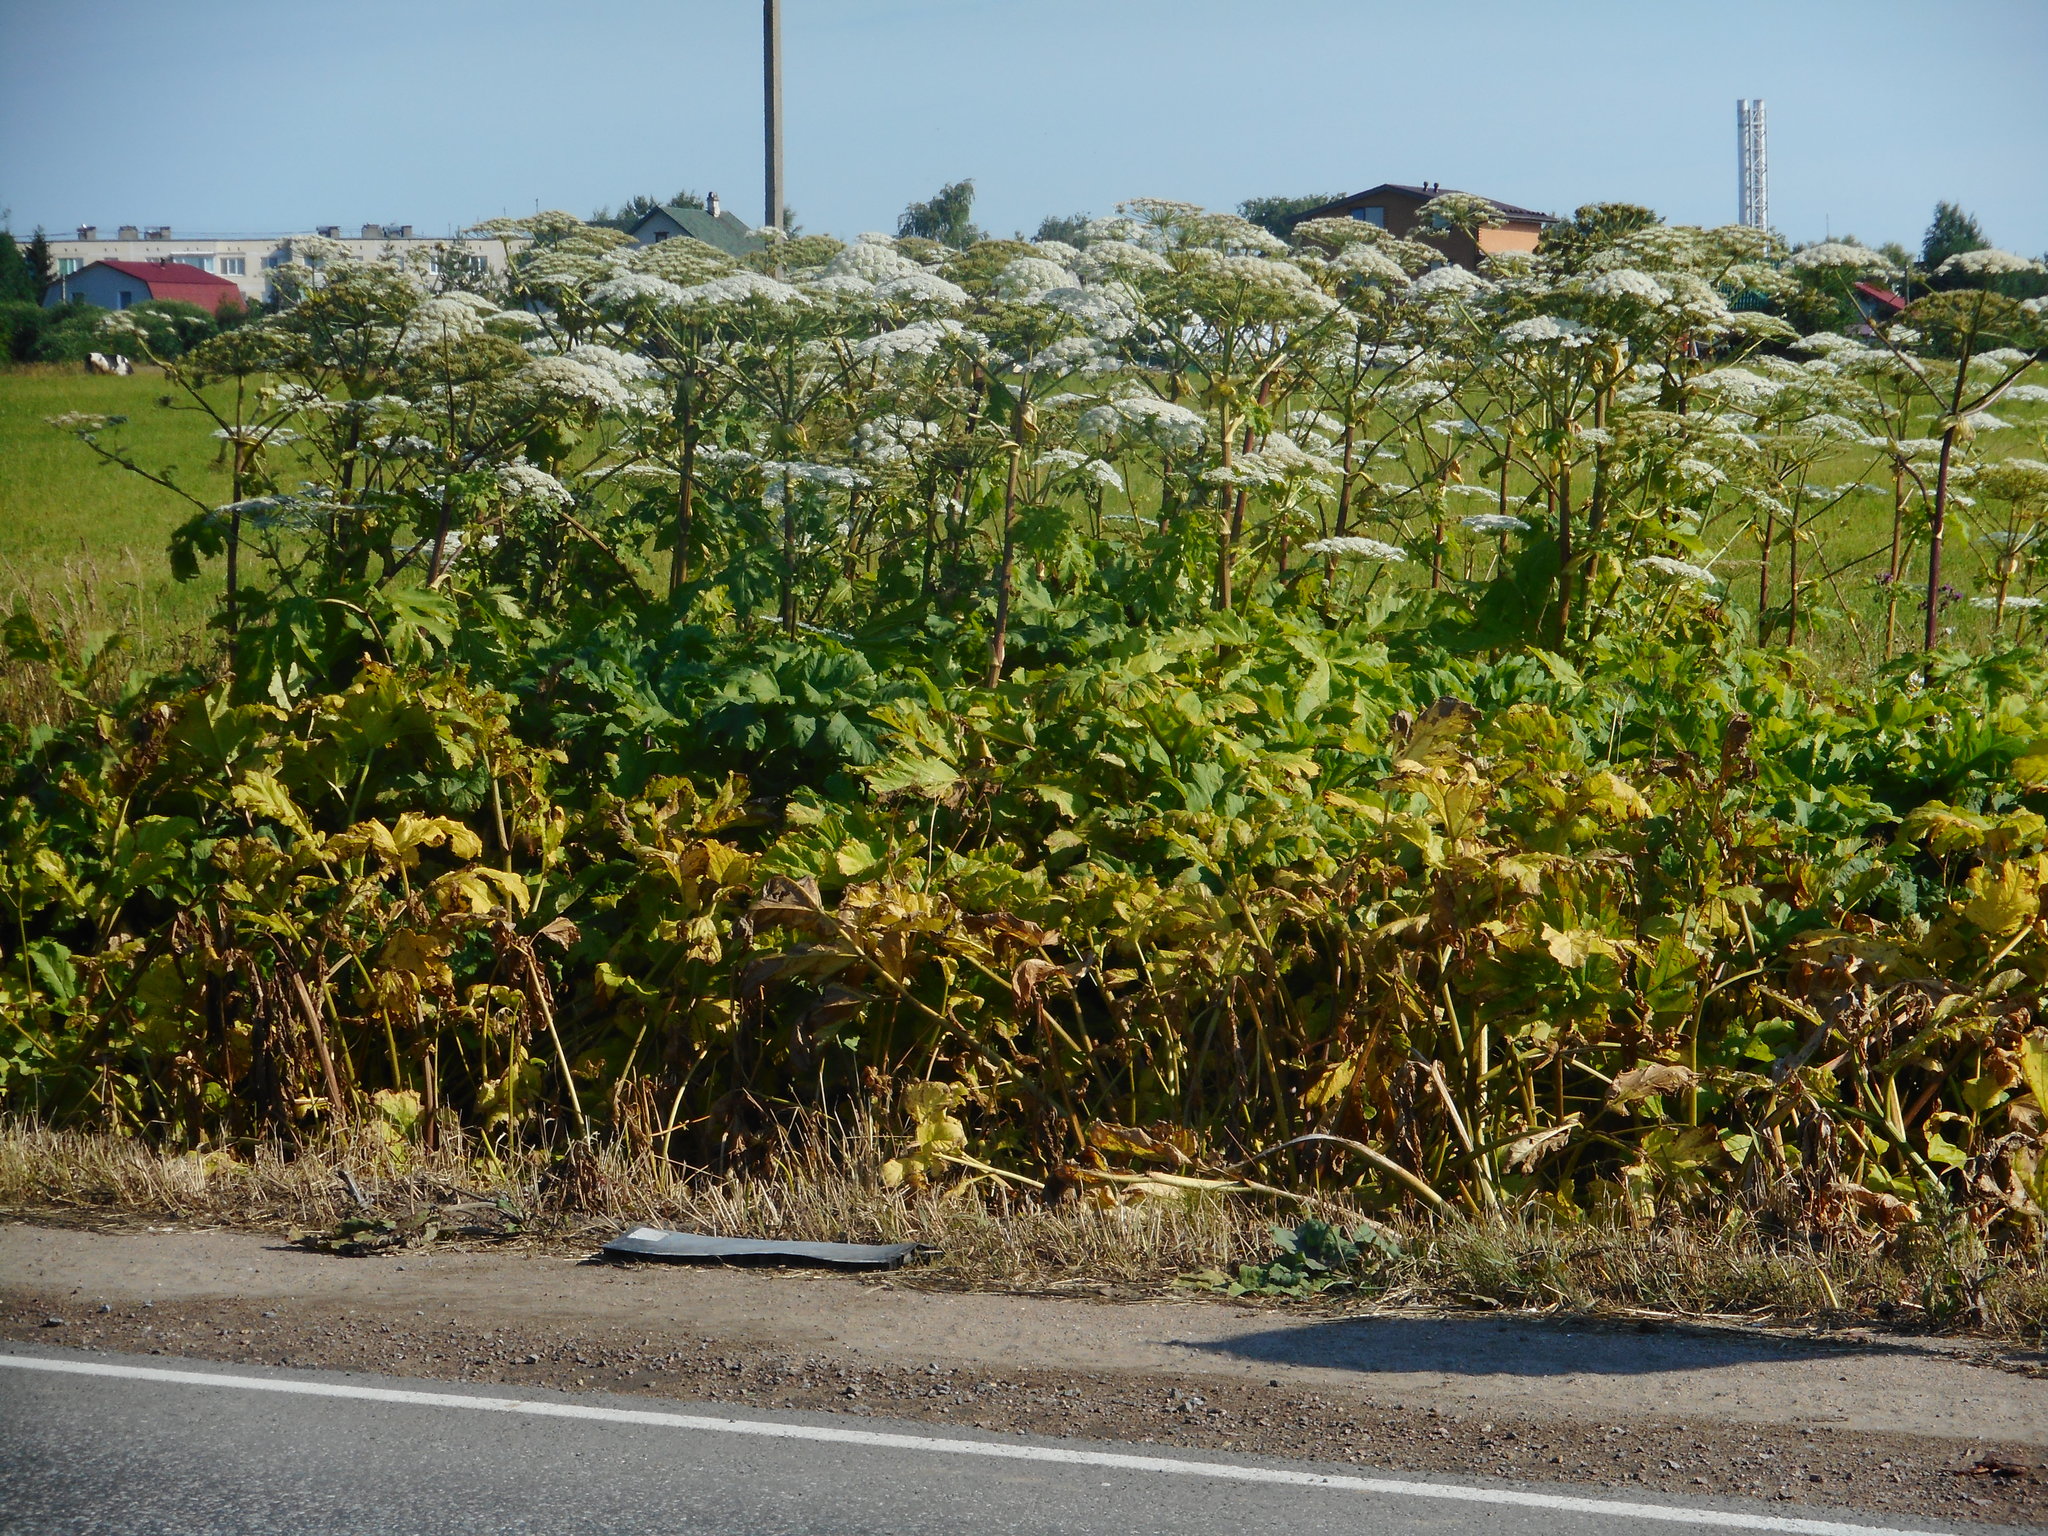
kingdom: Plantae
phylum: Tracheophyta
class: Magnoliopsida
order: Apiales
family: Apiaceae
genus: Heracleum
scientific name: Heracleum sosnowskyi
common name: Sosnowsky's hogweed
